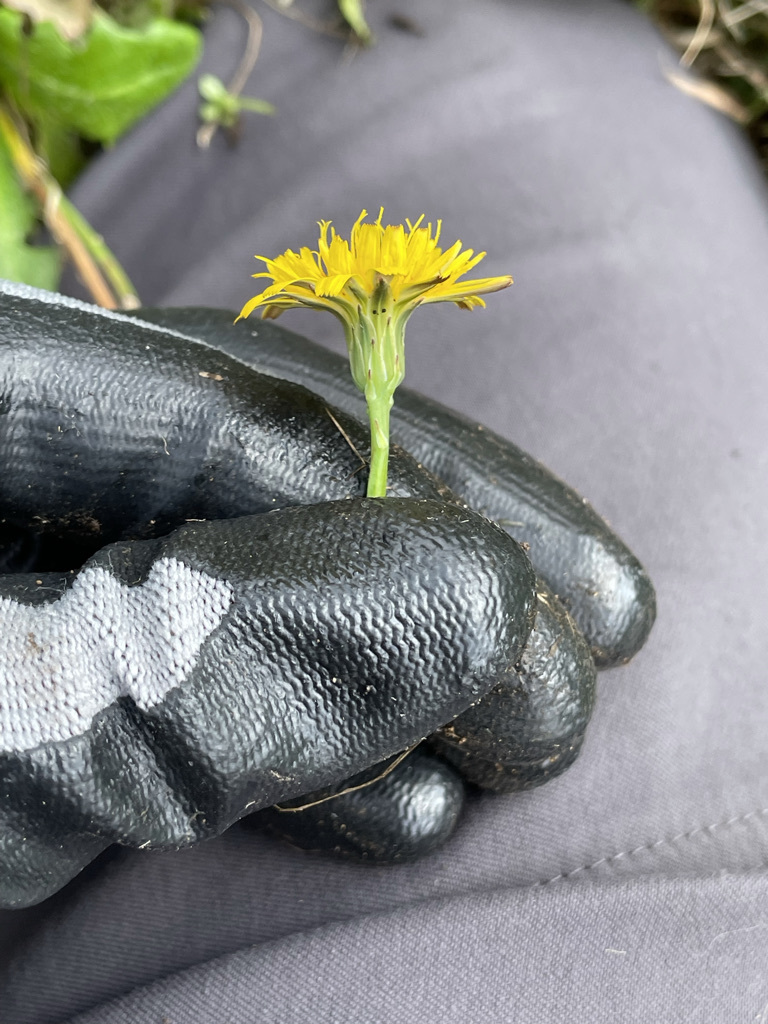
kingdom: Plantae
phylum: Tracheophyta
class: Magnoliopsida
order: Asterales
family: Asteraceae
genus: Hypochaeris
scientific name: Hypochaeris radicata
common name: Flatweed
